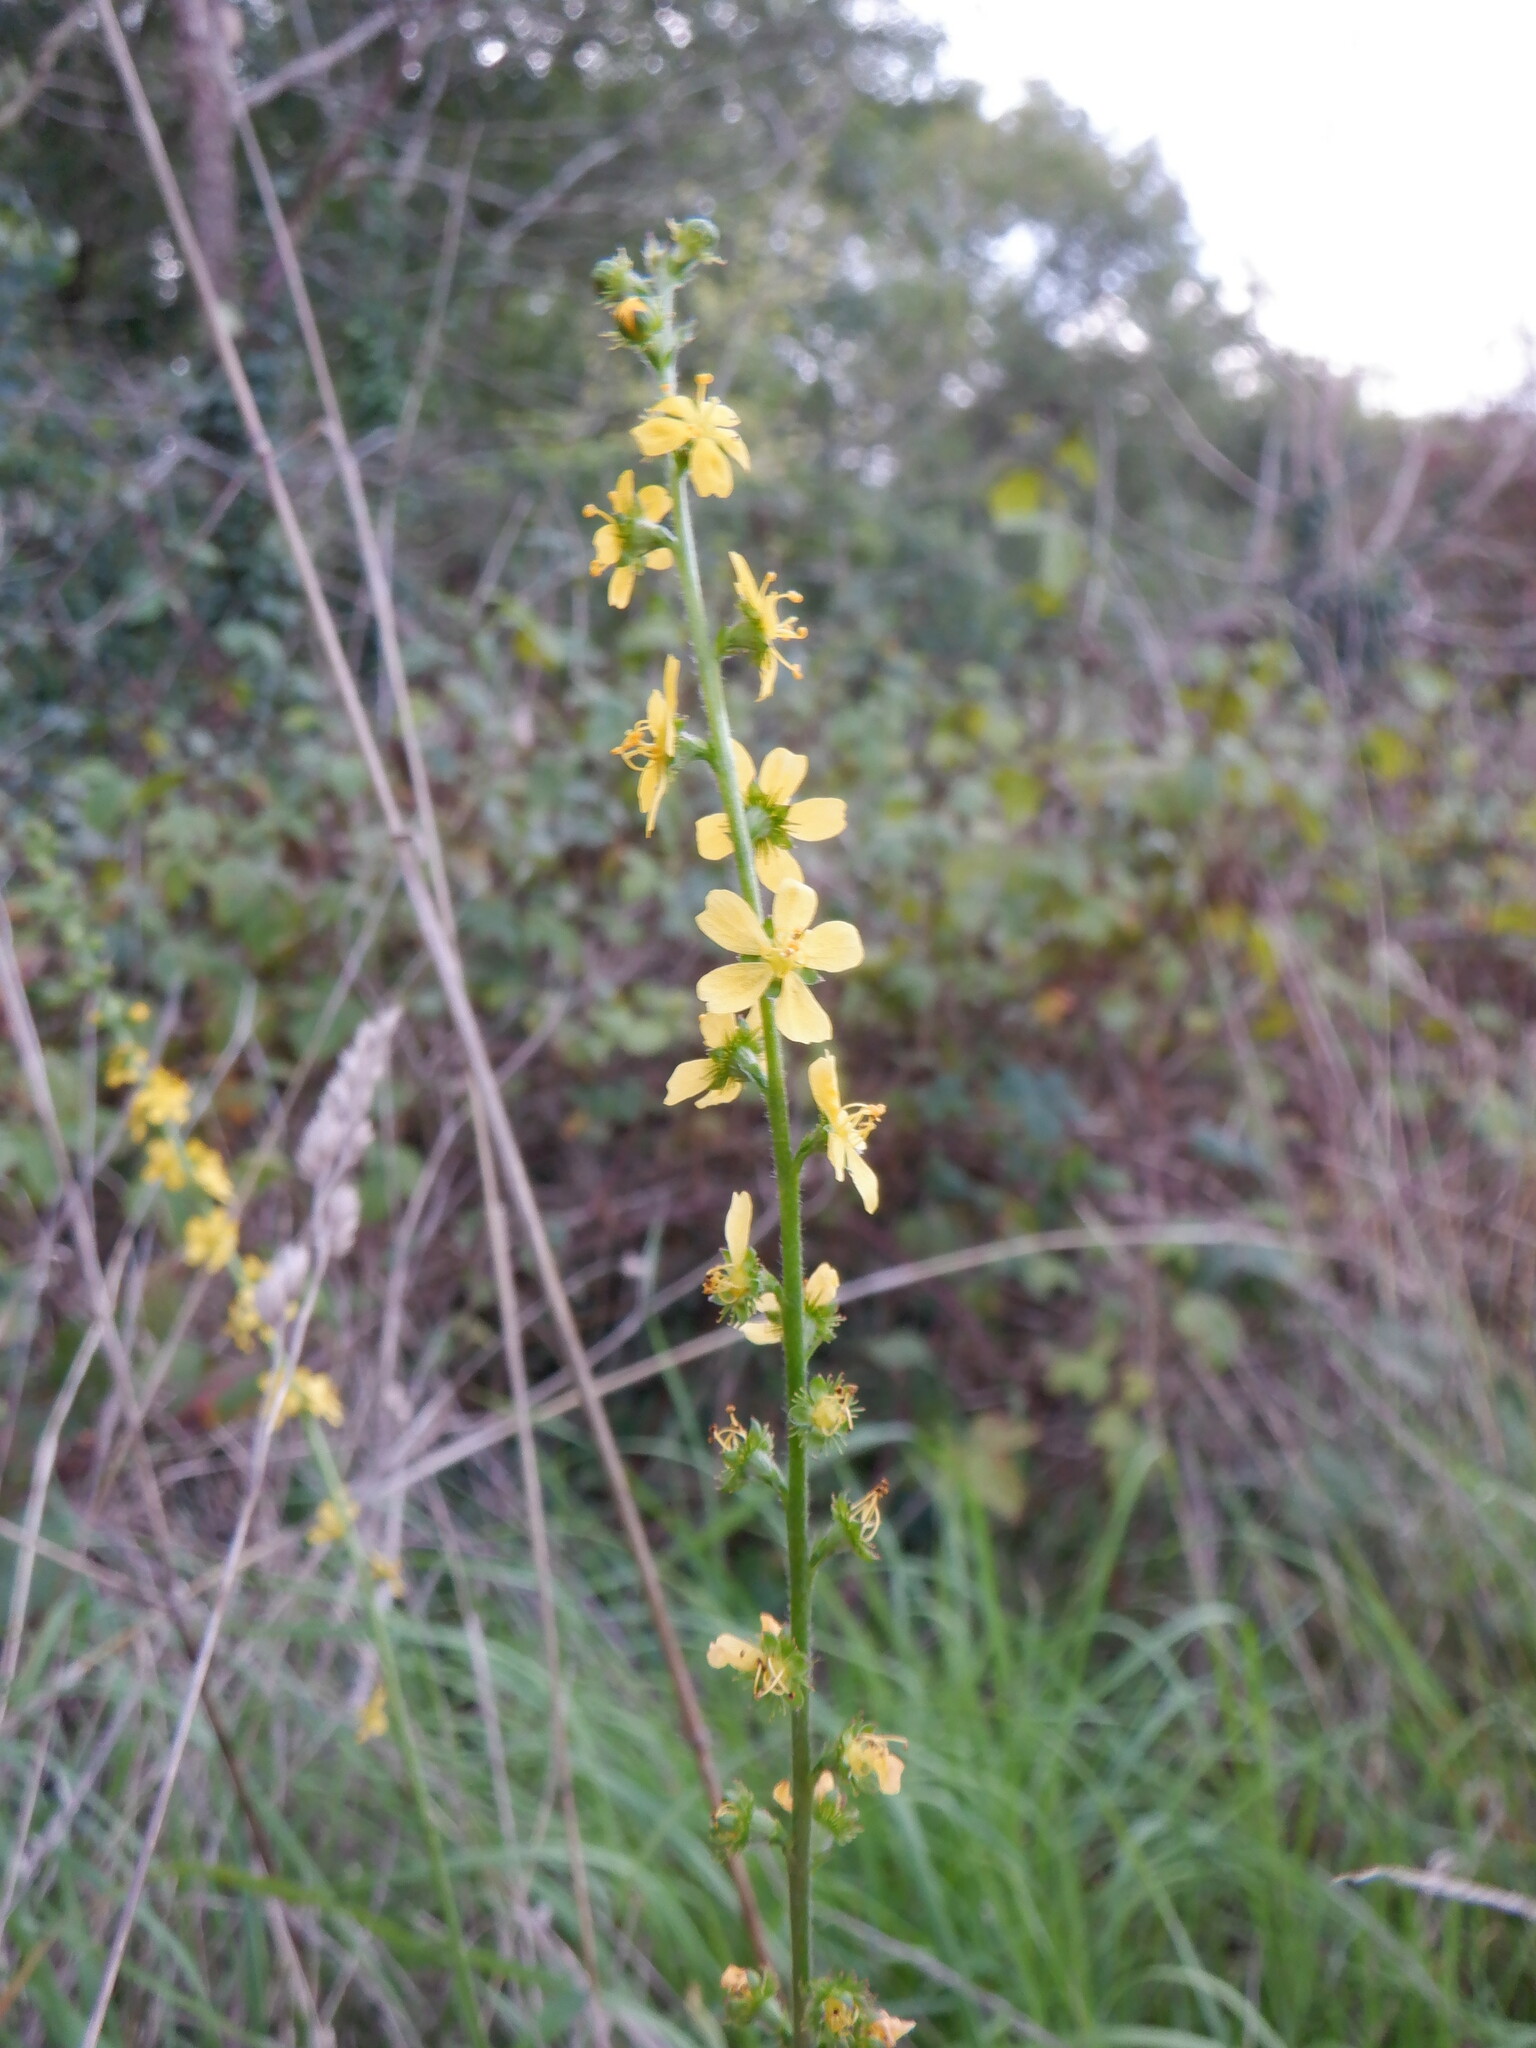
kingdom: Plantae
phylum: Tracheophyta
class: Magnoliopsida
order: Rosales
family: Rosaceae
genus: Agrimonia
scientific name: Agrimonia eupatoria
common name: Agrimony
